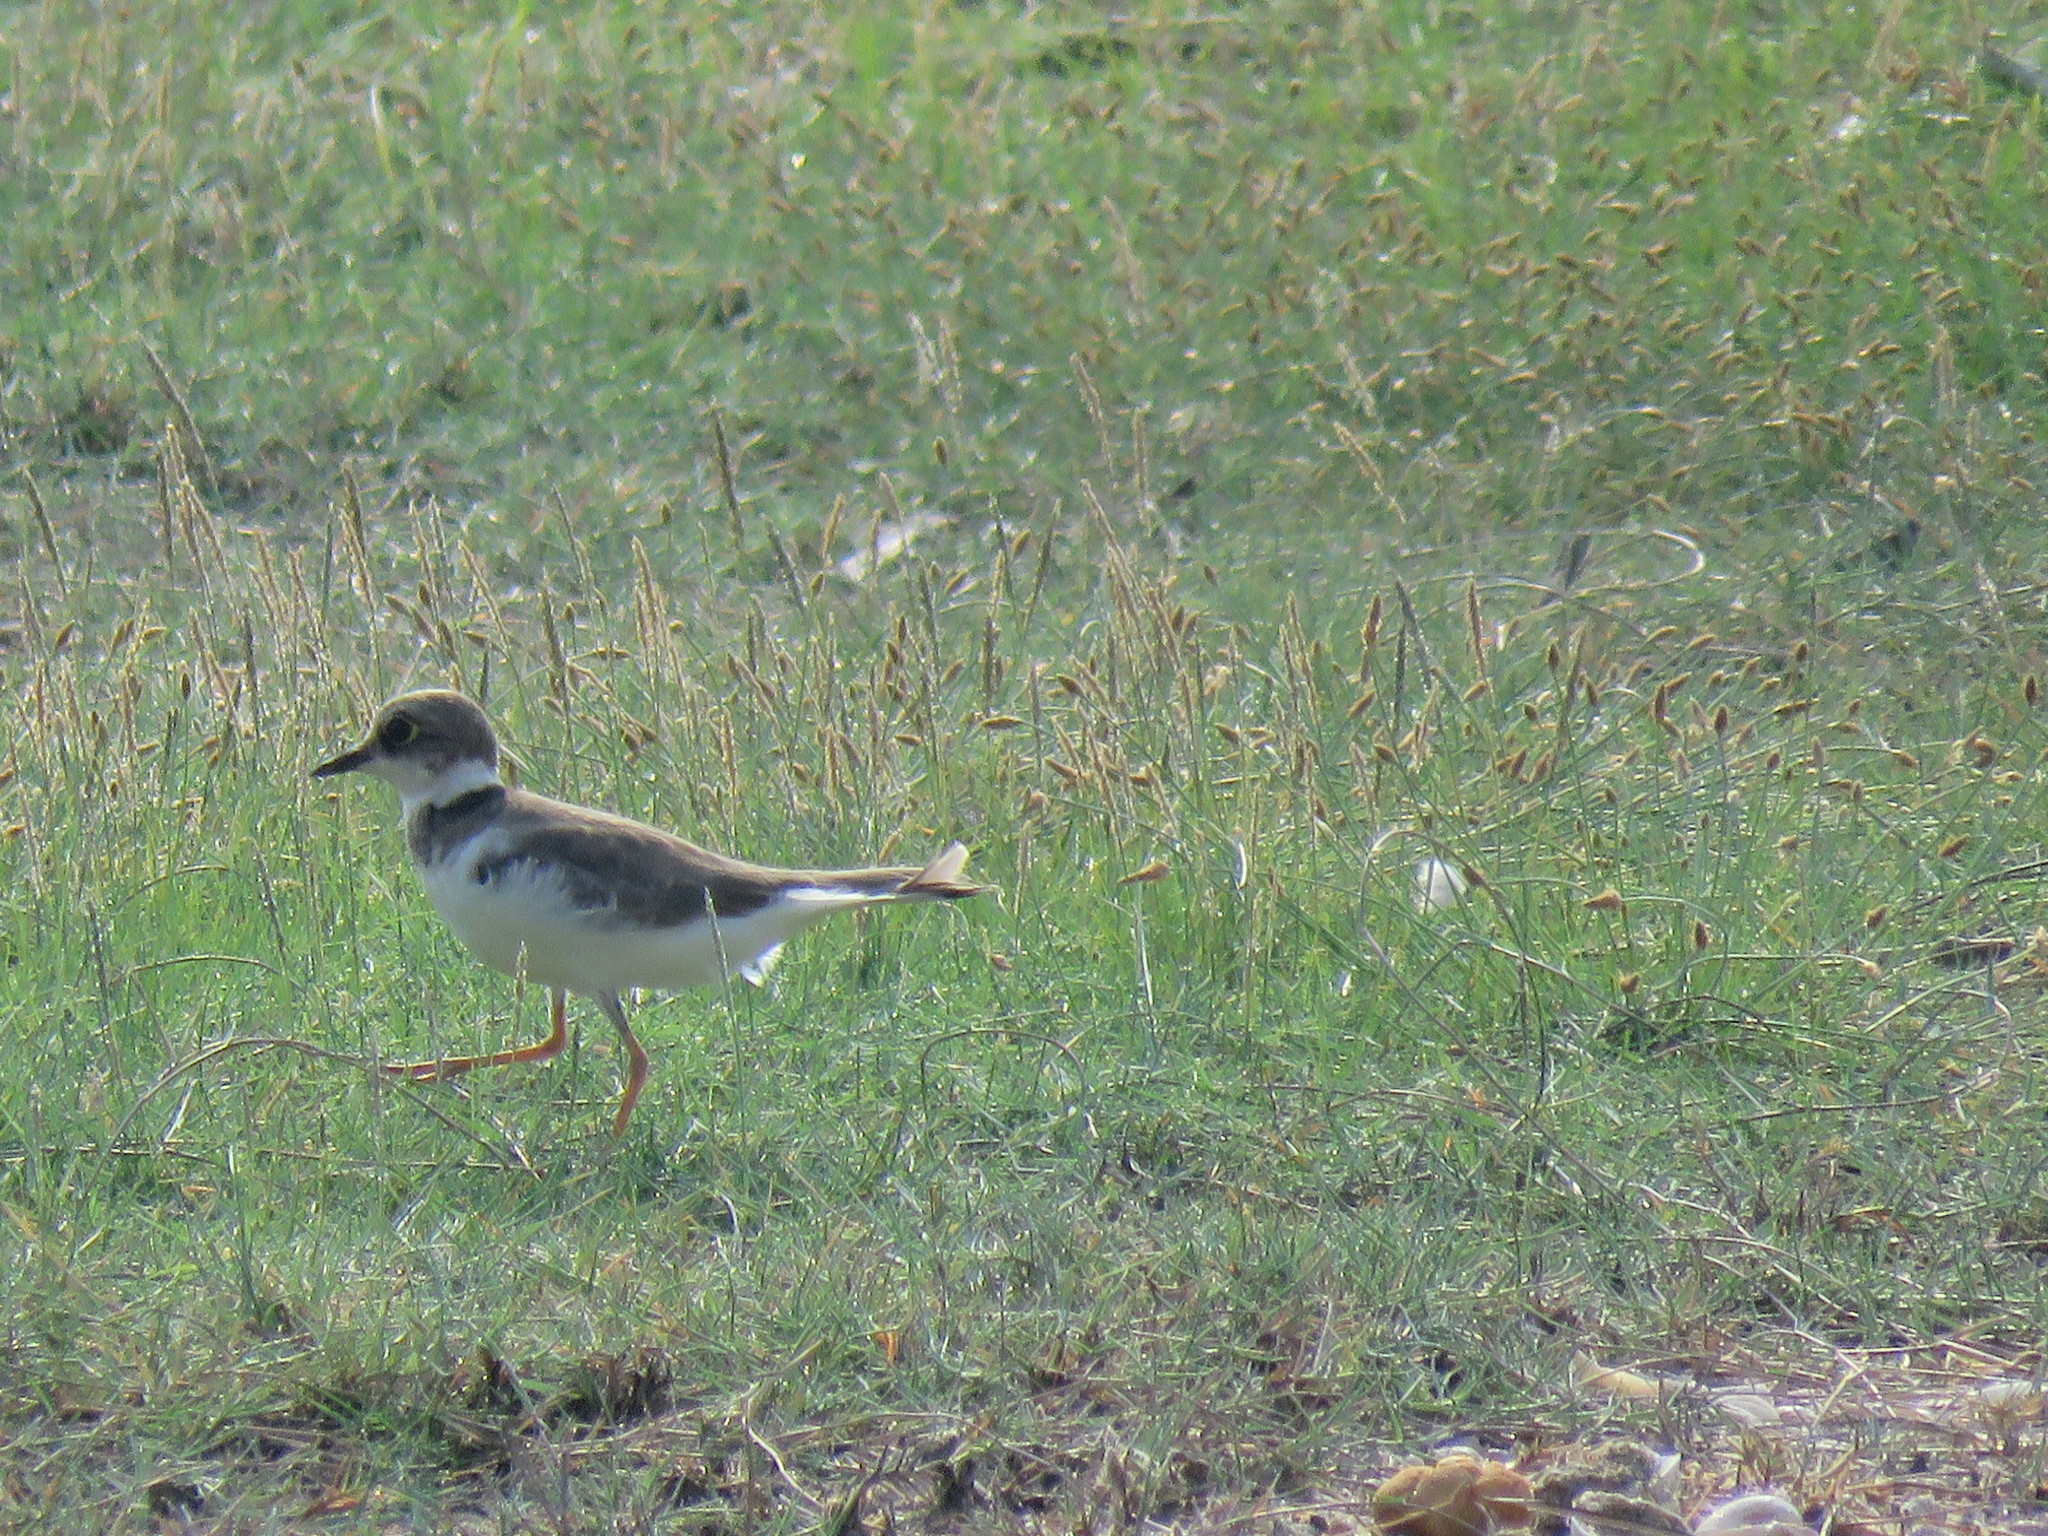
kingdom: Animalia
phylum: Chordata
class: Aves
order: Charadriiformes
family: Charadriidae
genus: Charadrius
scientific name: Charadrius dubius
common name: Little ringed plover
